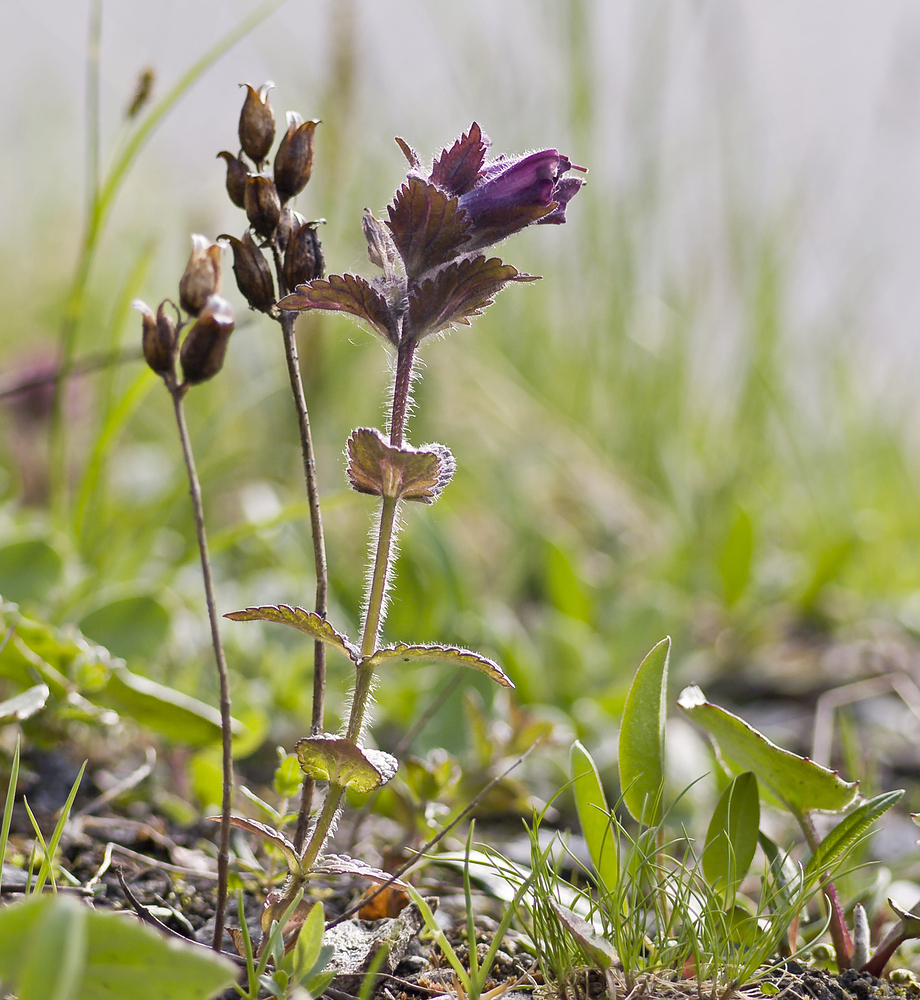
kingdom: Plantae
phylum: Tracheophyta
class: Magnoliopsida
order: Lamiales
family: Orobanchaceae
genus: Bartsia
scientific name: Bartsia alpina
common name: Alpine bartsia
